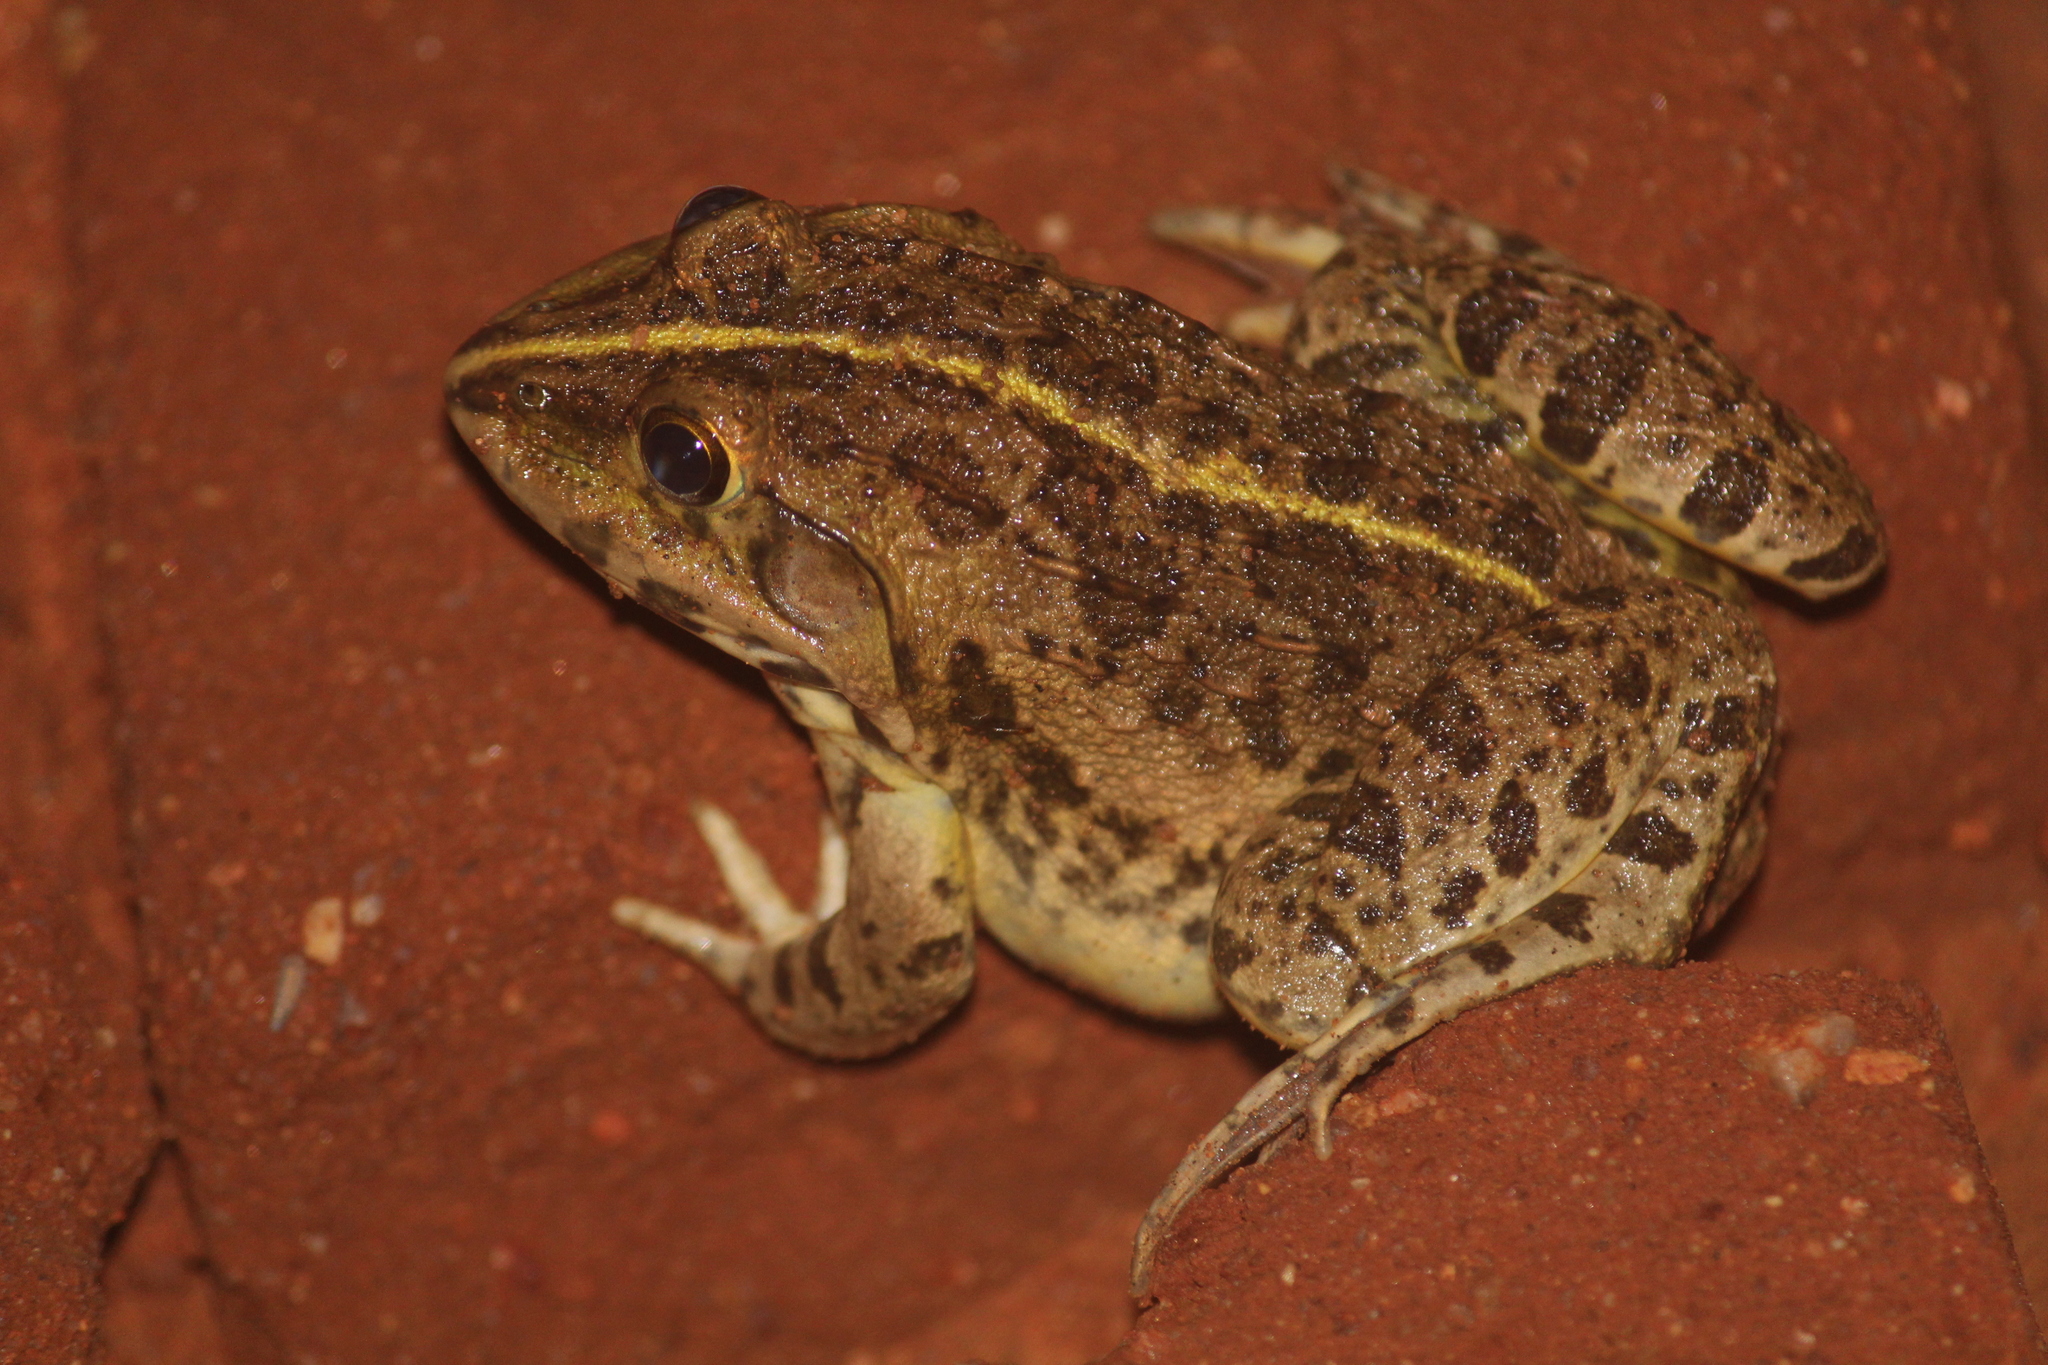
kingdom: Animalia
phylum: Chordata
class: Amphibia
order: Anura
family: Dicroglossidae
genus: Hoplobatrachus
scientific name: Hoplobatrachus tigerinus
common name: Indian bullfrog
